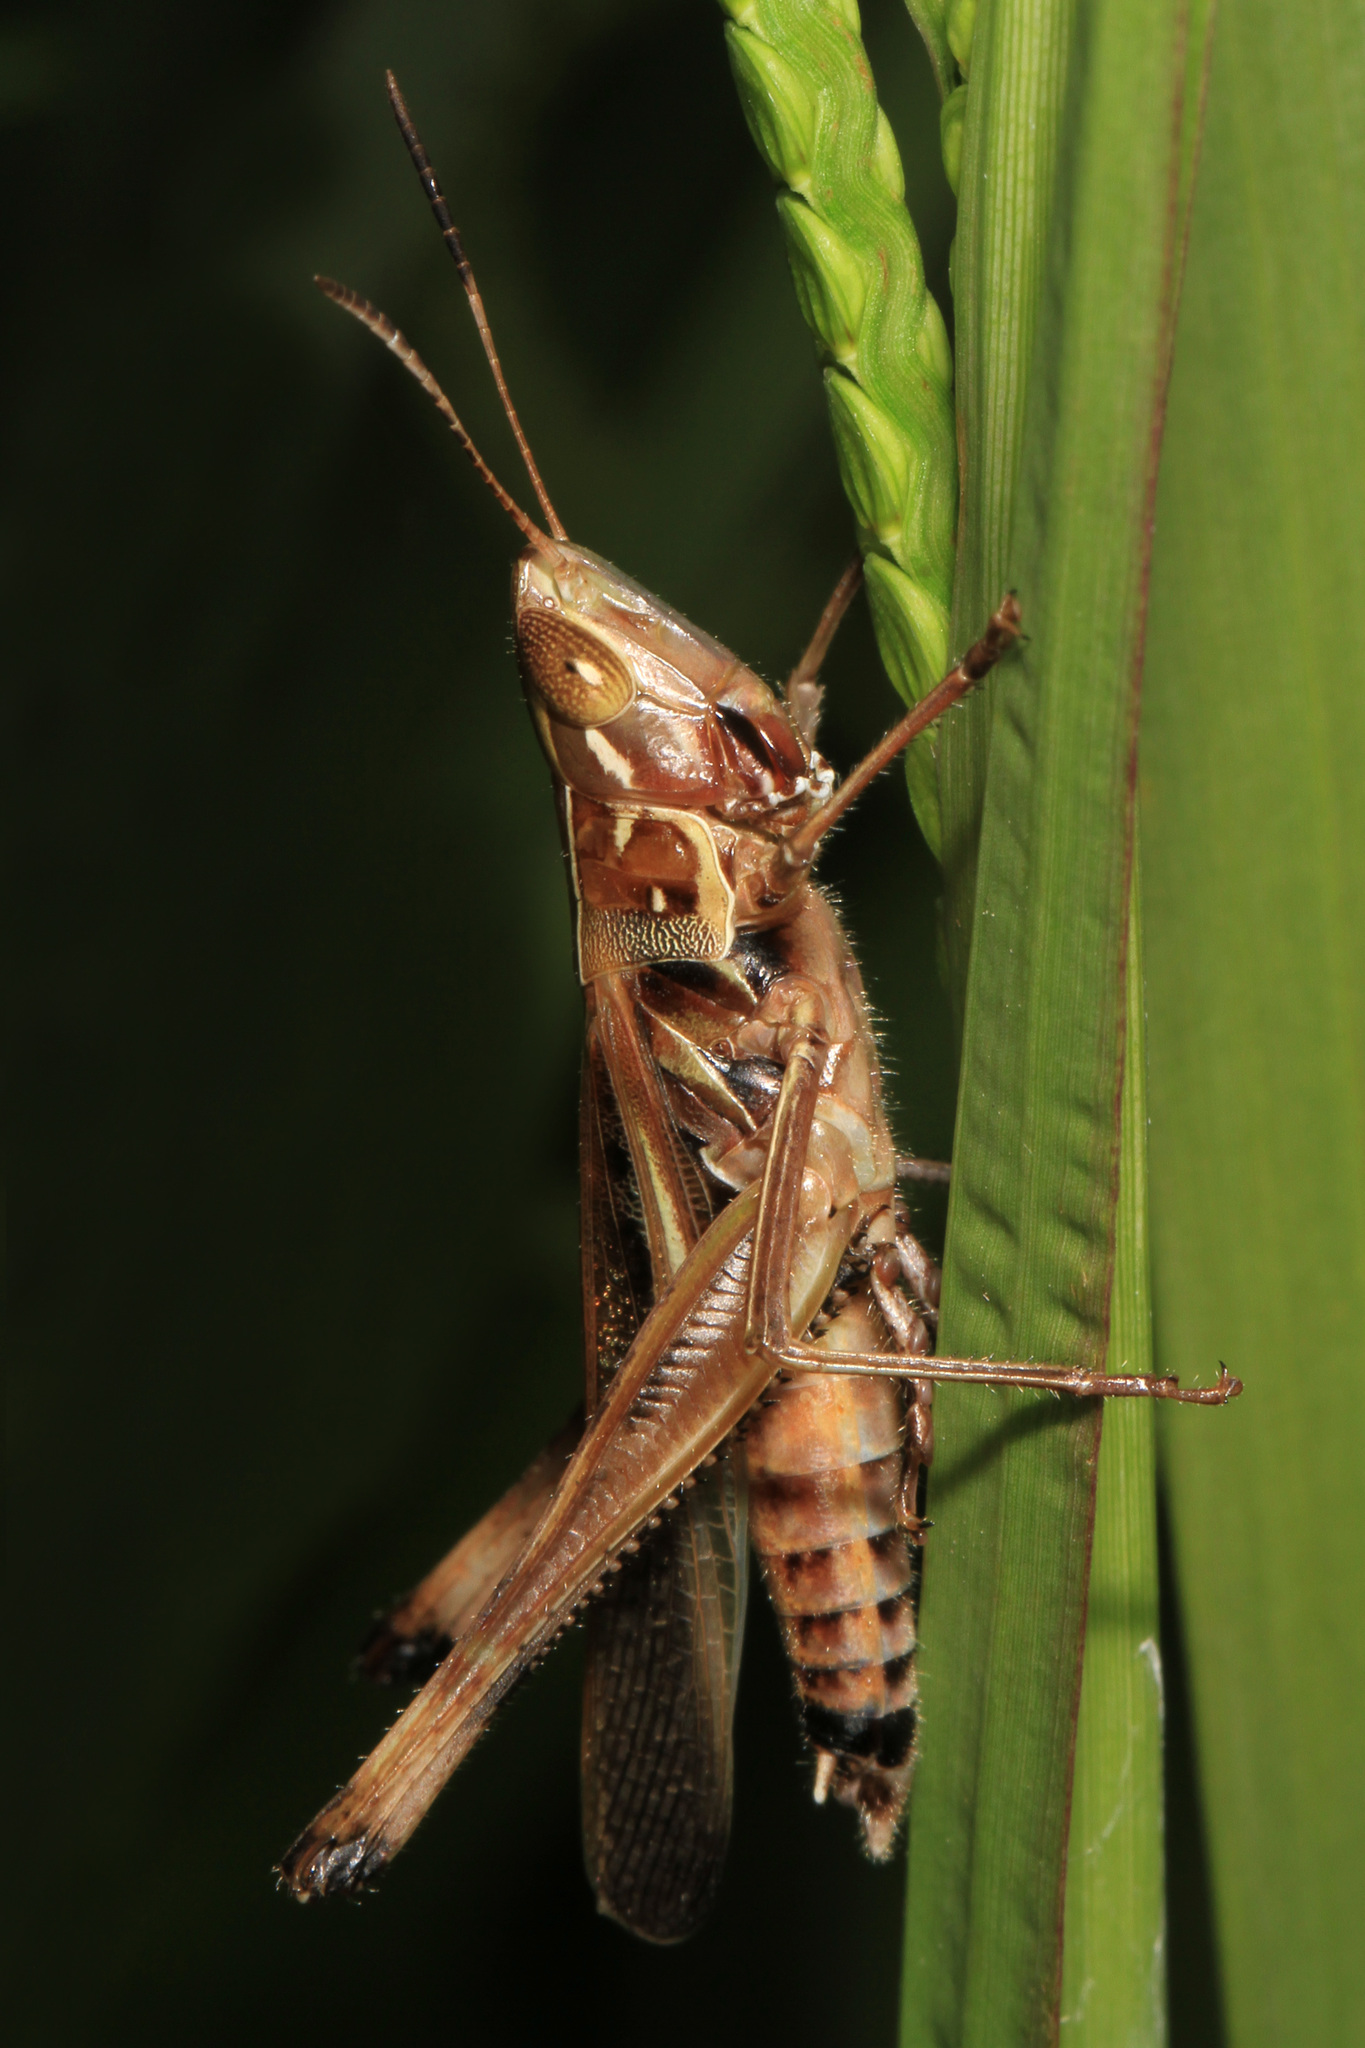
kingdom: Animalia
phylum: Arthropoda
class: Insecta
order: Orthoptera
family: Acrididae
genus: Syrbula
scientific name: Syrbula admirabilis
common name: Handsome grasshopper
